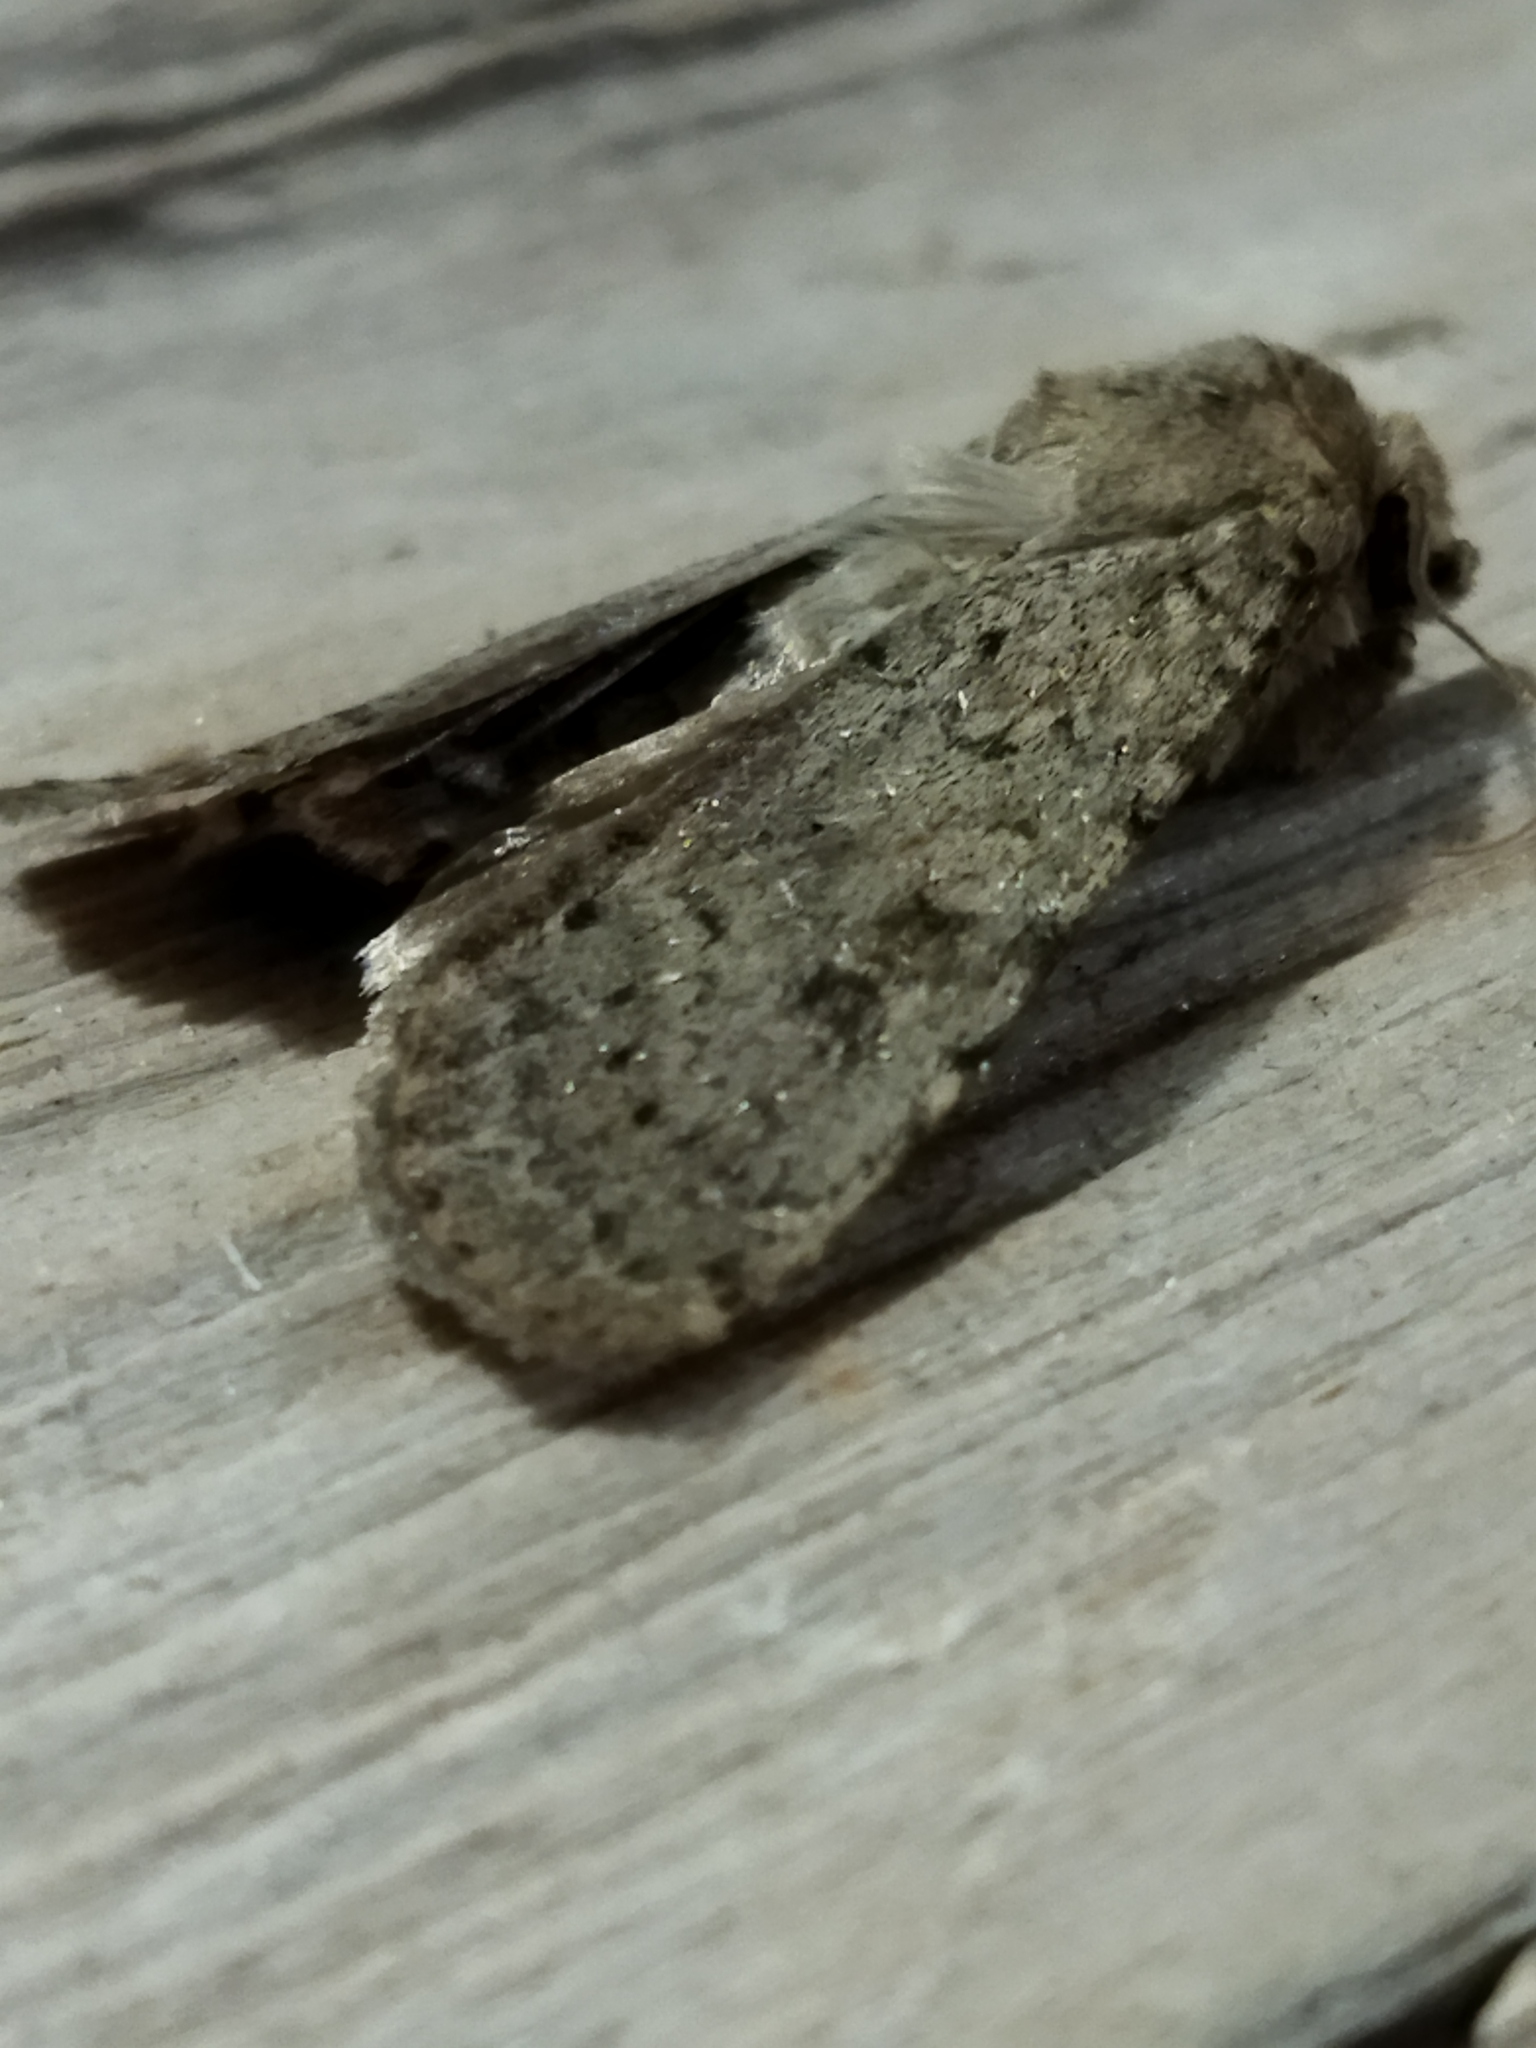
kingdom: Animalia
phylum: Arthropoda
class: Insecta
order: Lepidoptera
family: Noctuidae
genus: Rhyacia
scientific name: Rhyacia simulans
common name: Dotted rustic
